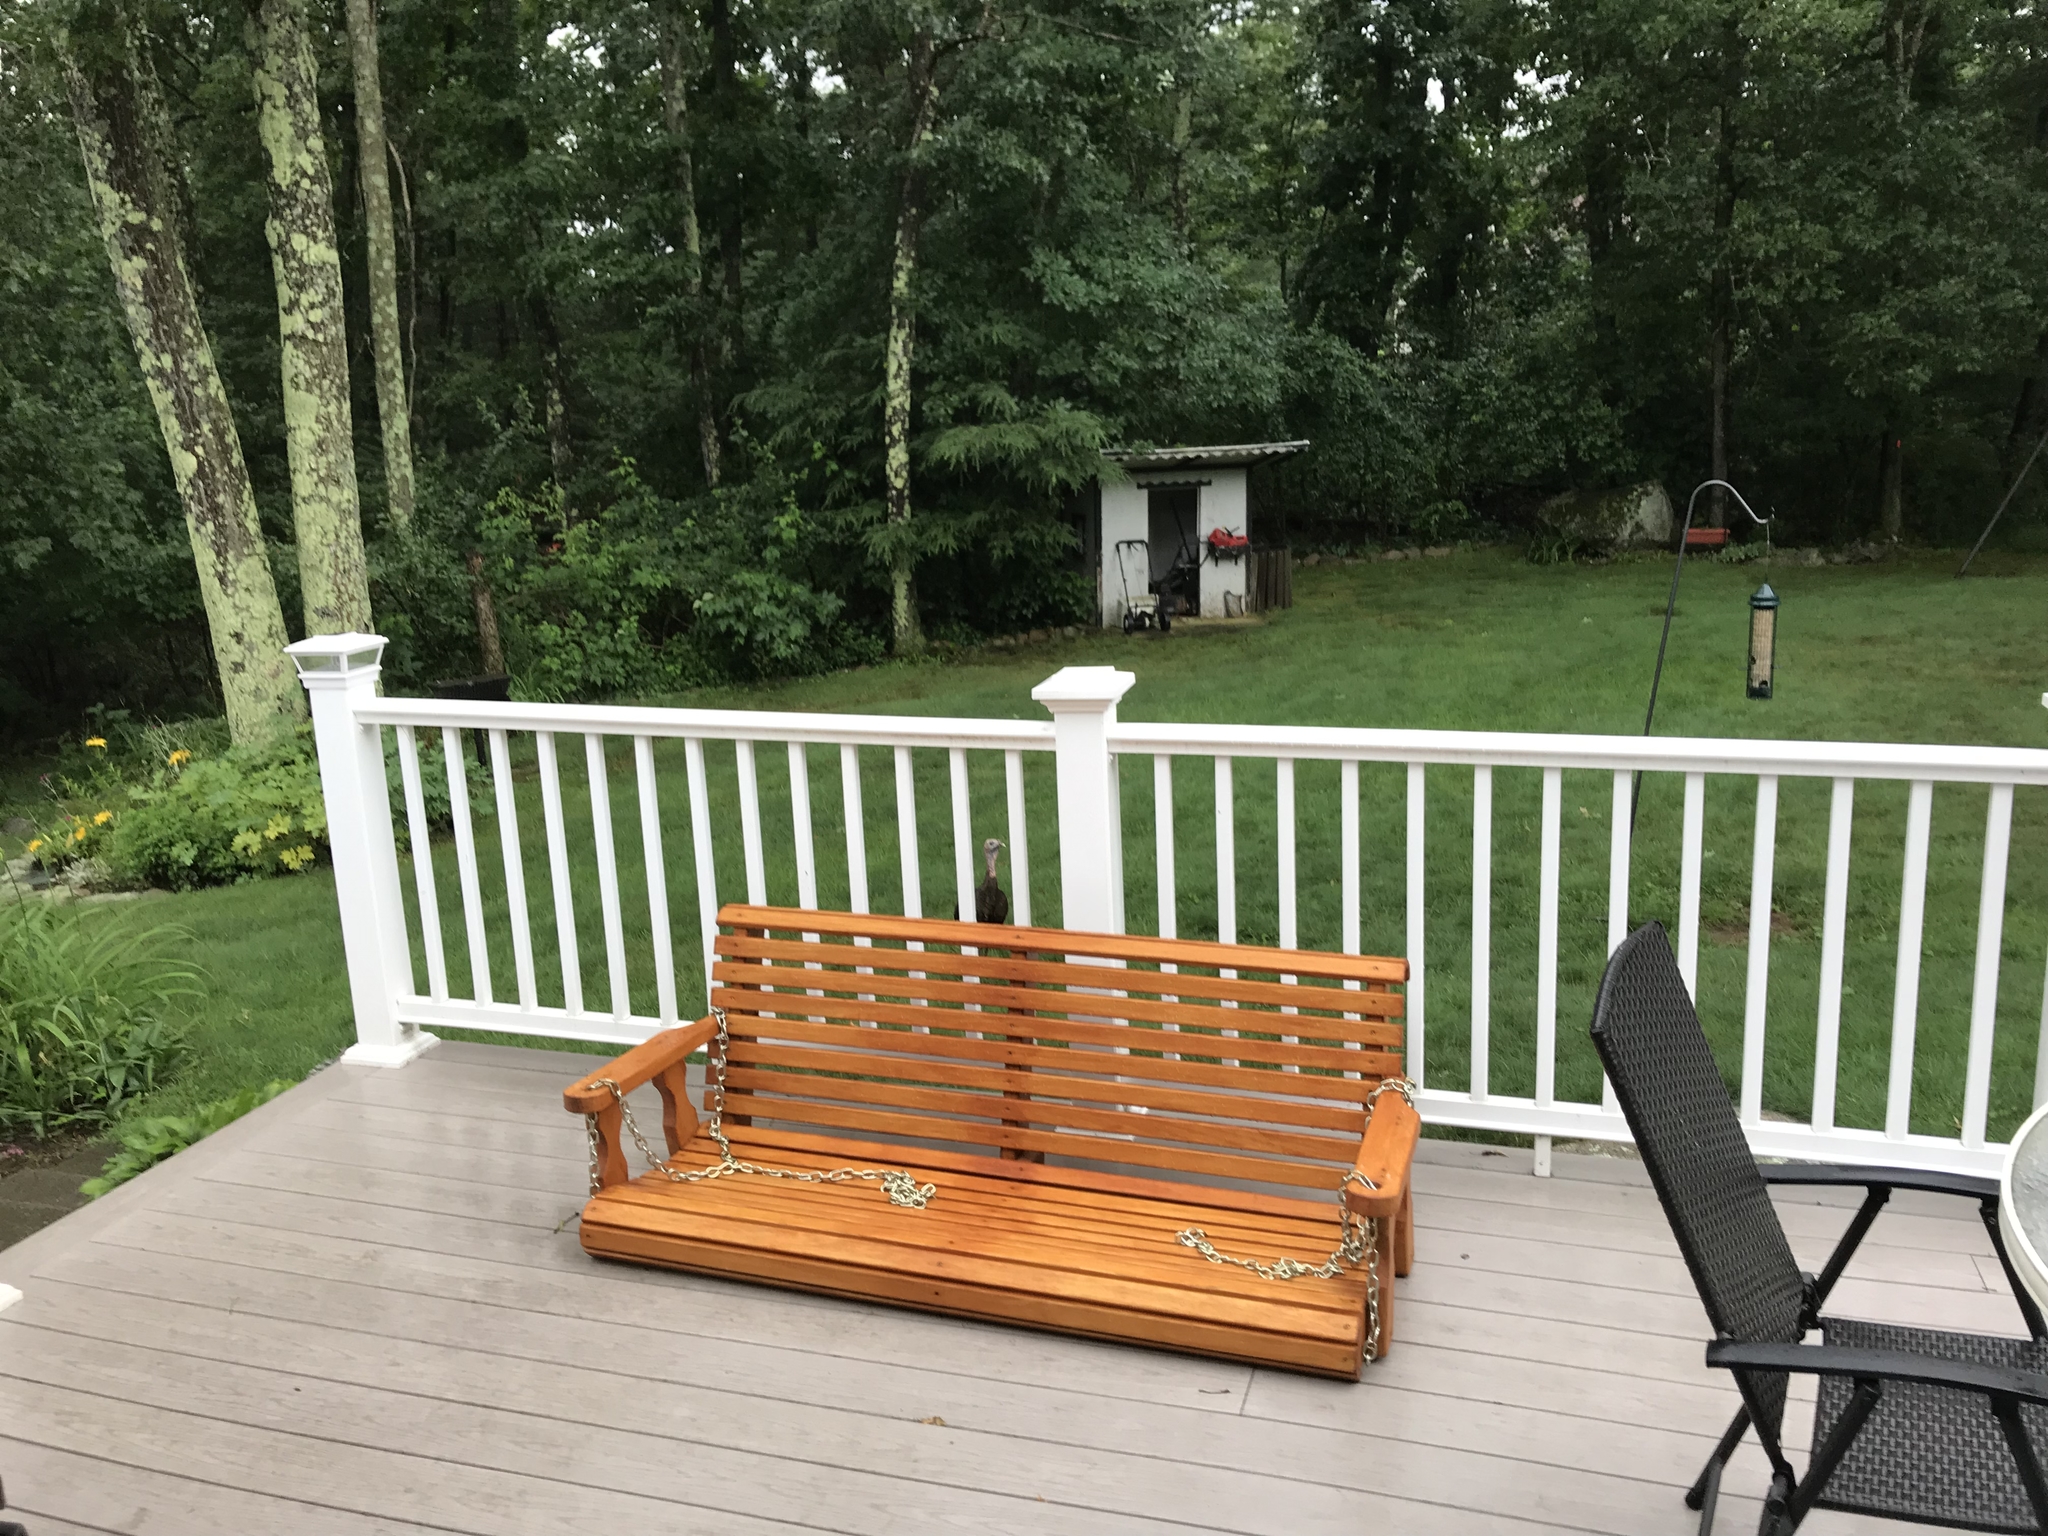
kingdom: Animalia
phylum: Chordata
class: Aves
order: Galliformes
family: Phasianidae
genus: Meleagris
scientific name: Meleagris gallopavo
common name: Wild turkey
